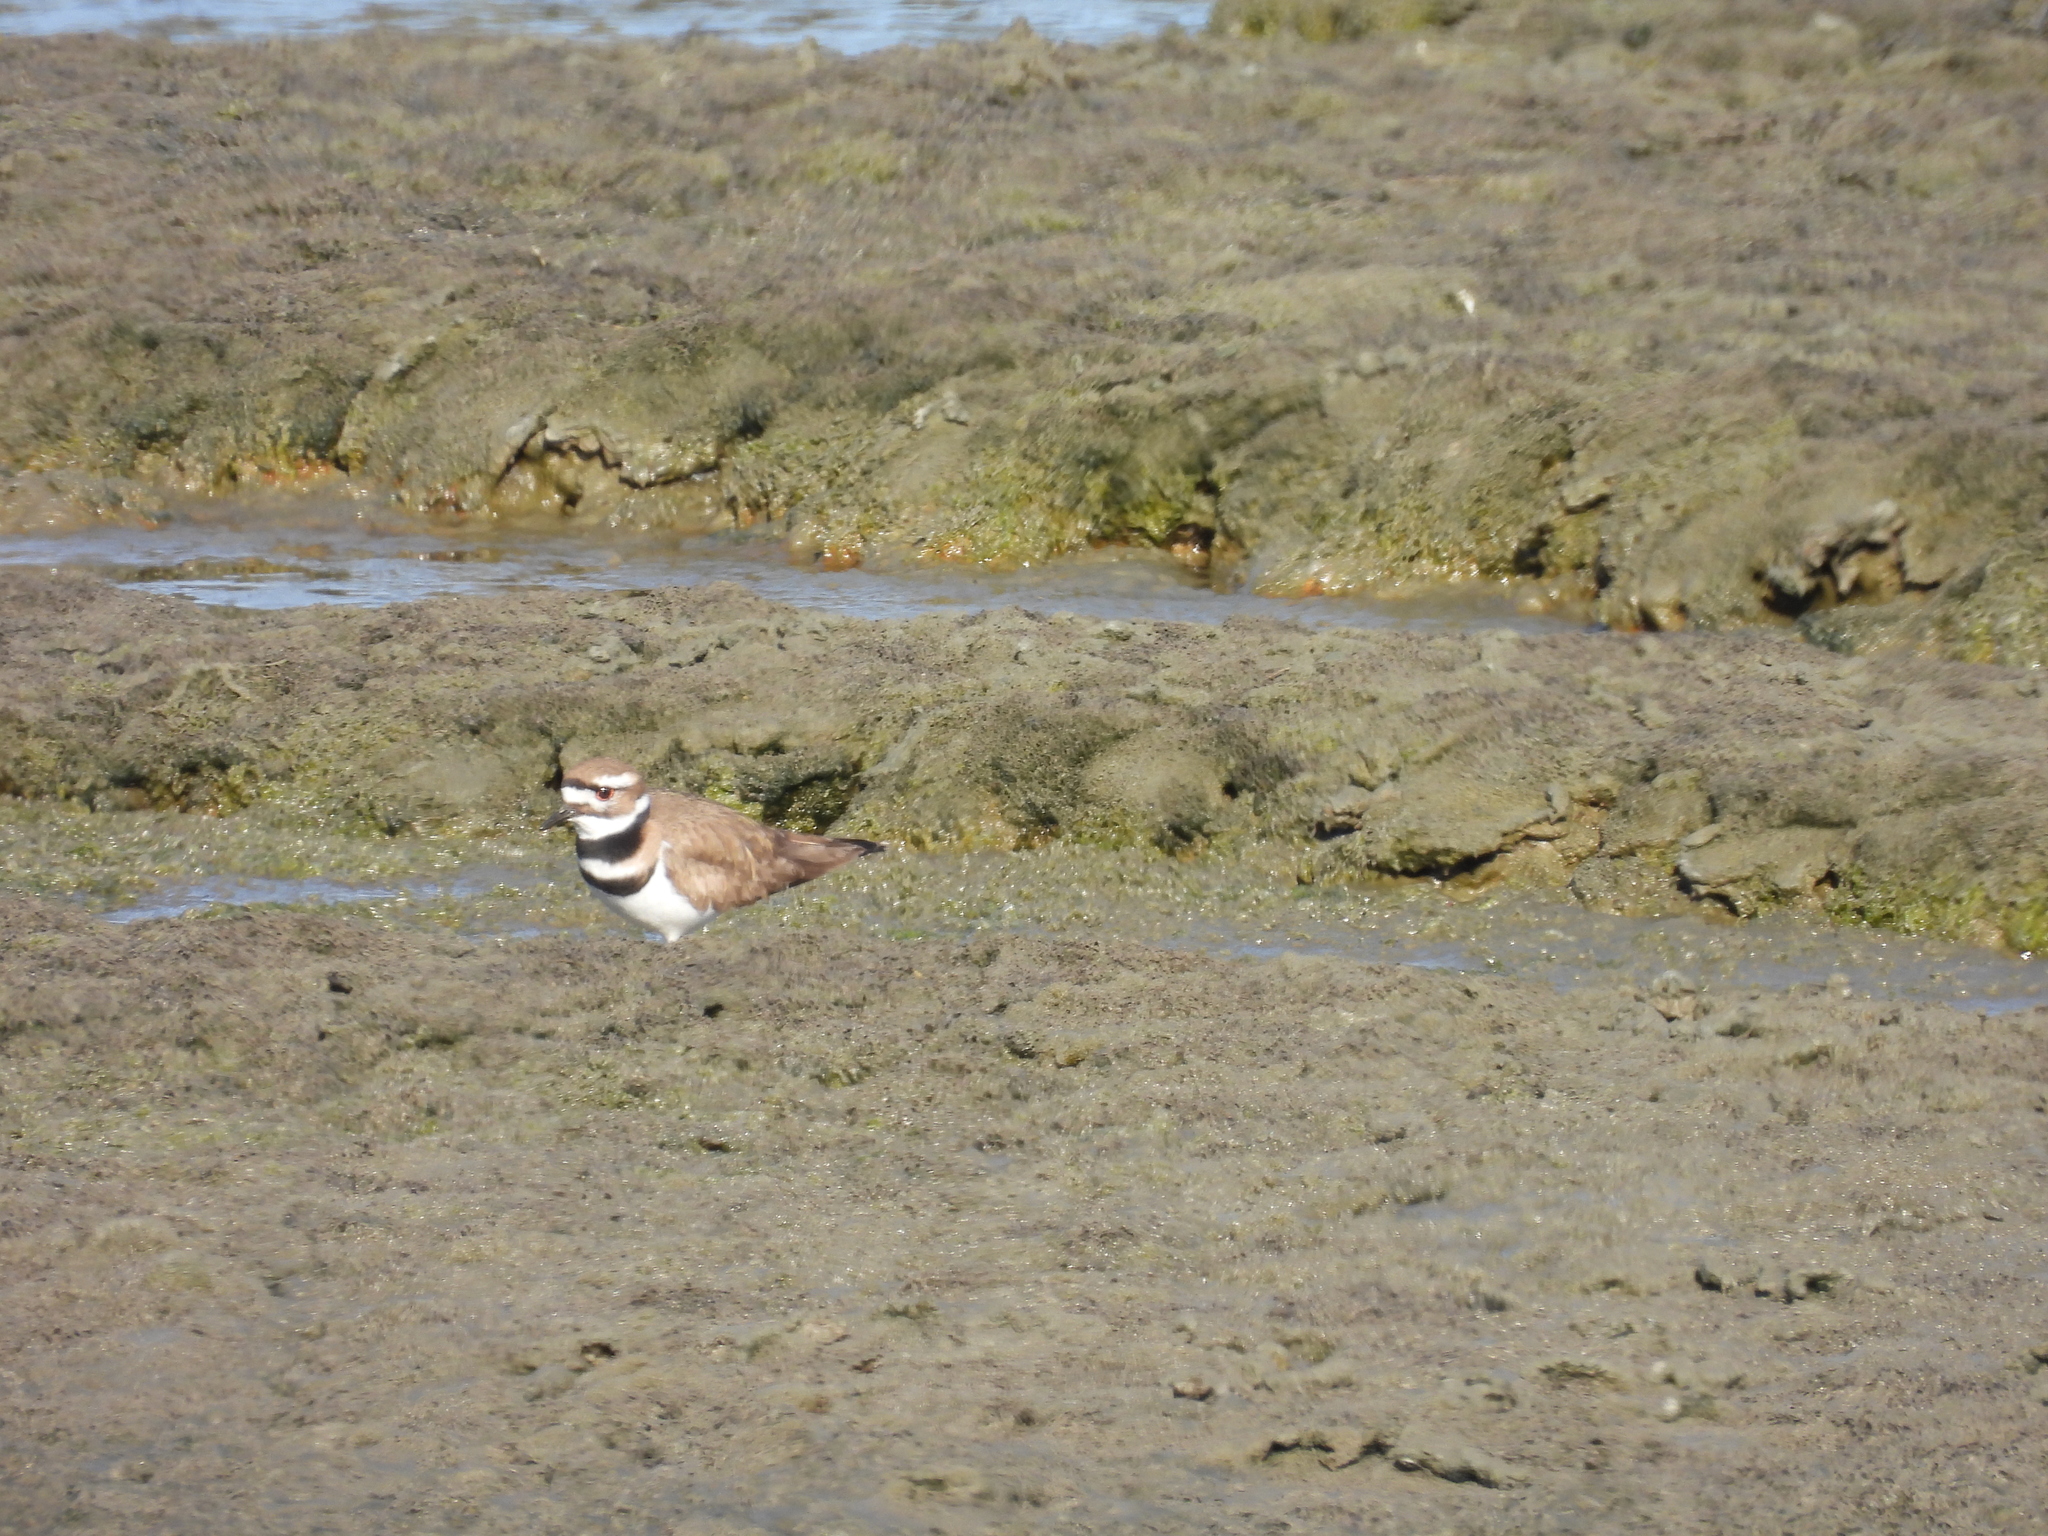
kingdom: Animalia
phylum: Chordata
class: Aves
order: Charadriiformes
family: Charadriidae
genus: Charadrius
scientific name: Charadrius vociferus
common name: Killdeer
